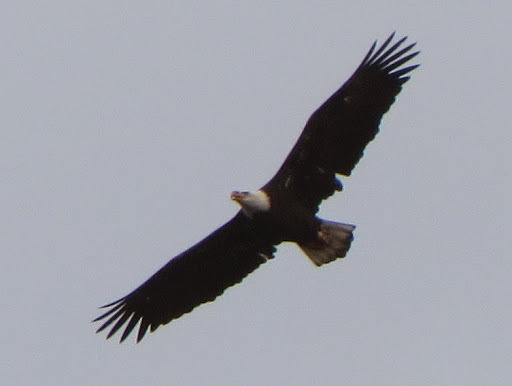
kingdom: Animalia
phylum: Chordata
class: Aves
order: Accipitriformes
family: Accipitridae
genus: Haliaeetus
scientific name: Haliaeetus leucocephalus
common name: Bald eagle
